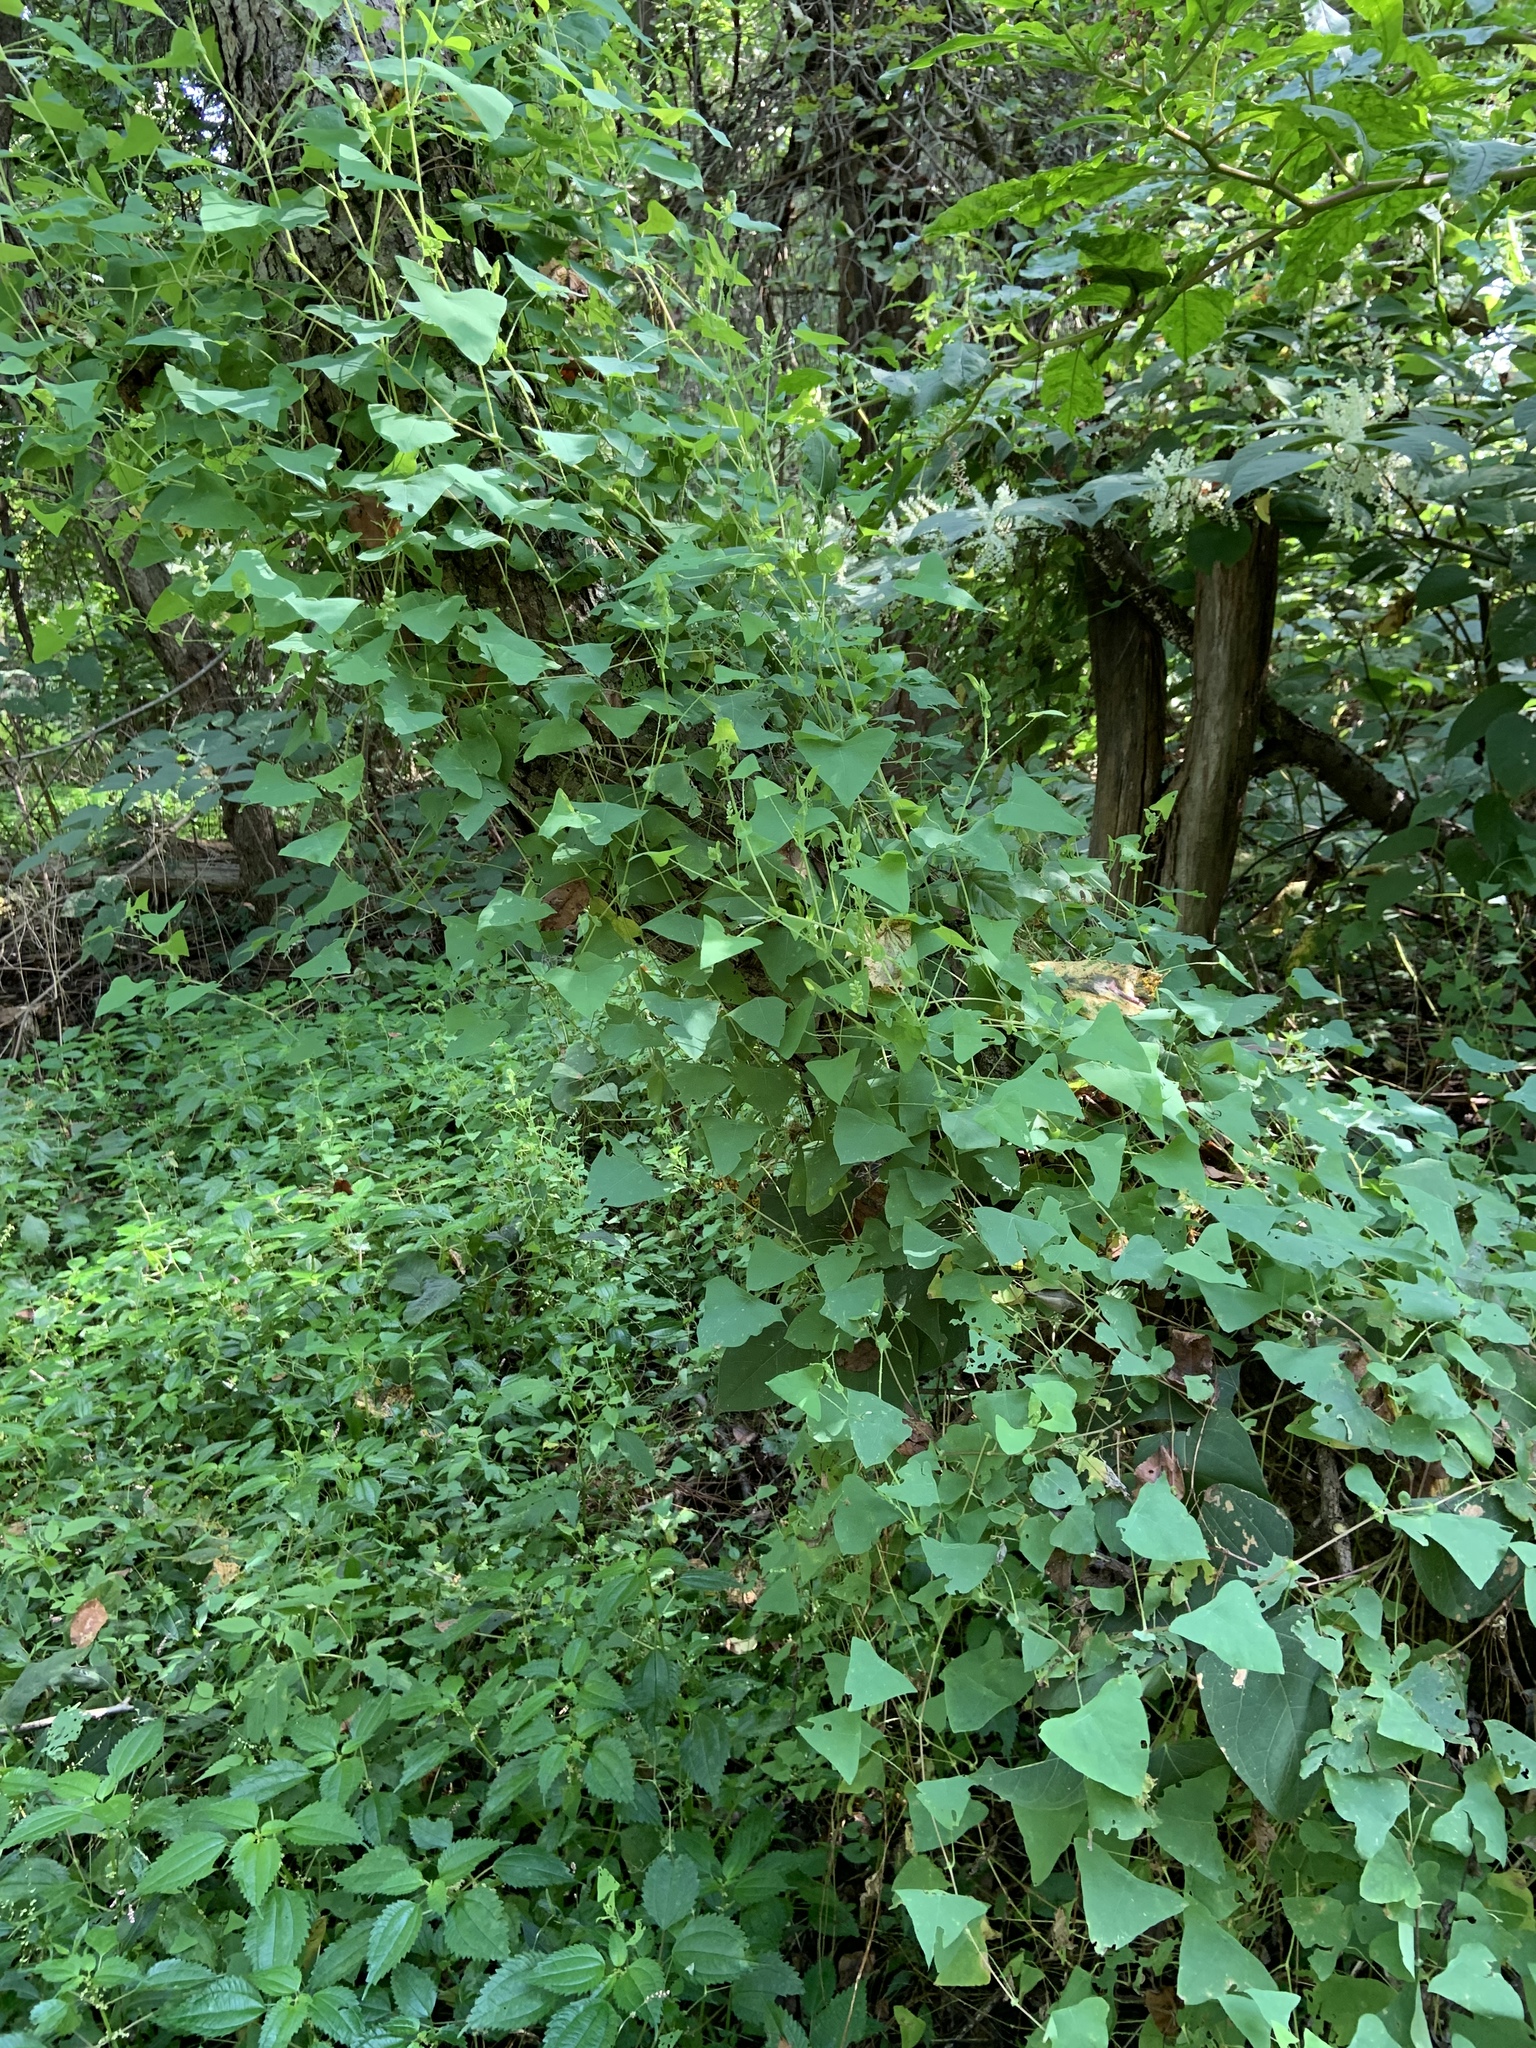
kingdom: Plantae
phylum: Tracheophyta
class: Magnoliopsida
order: Caryophyllales
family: Polygonaceae
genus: Persicaria
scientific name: Persicaria perfoliata
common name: Asiatic tearthumb
